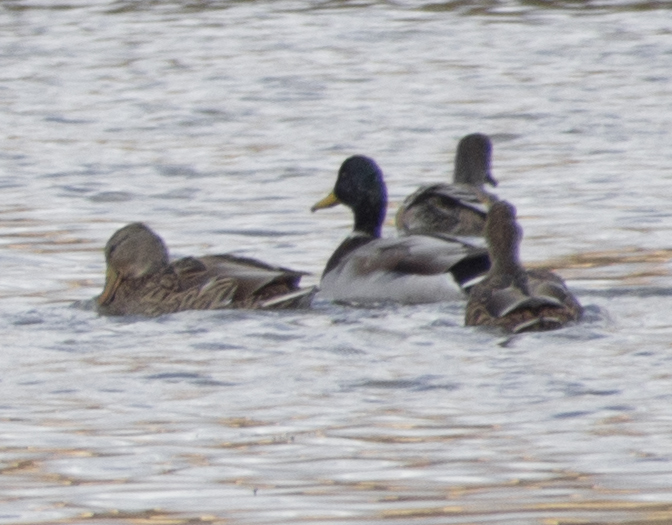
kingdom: Animalia
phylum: Chordata
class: Aves
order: Anseriformes
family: Anatidae
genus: Anas
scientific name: Anas platyrhynchos
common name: Mallard
